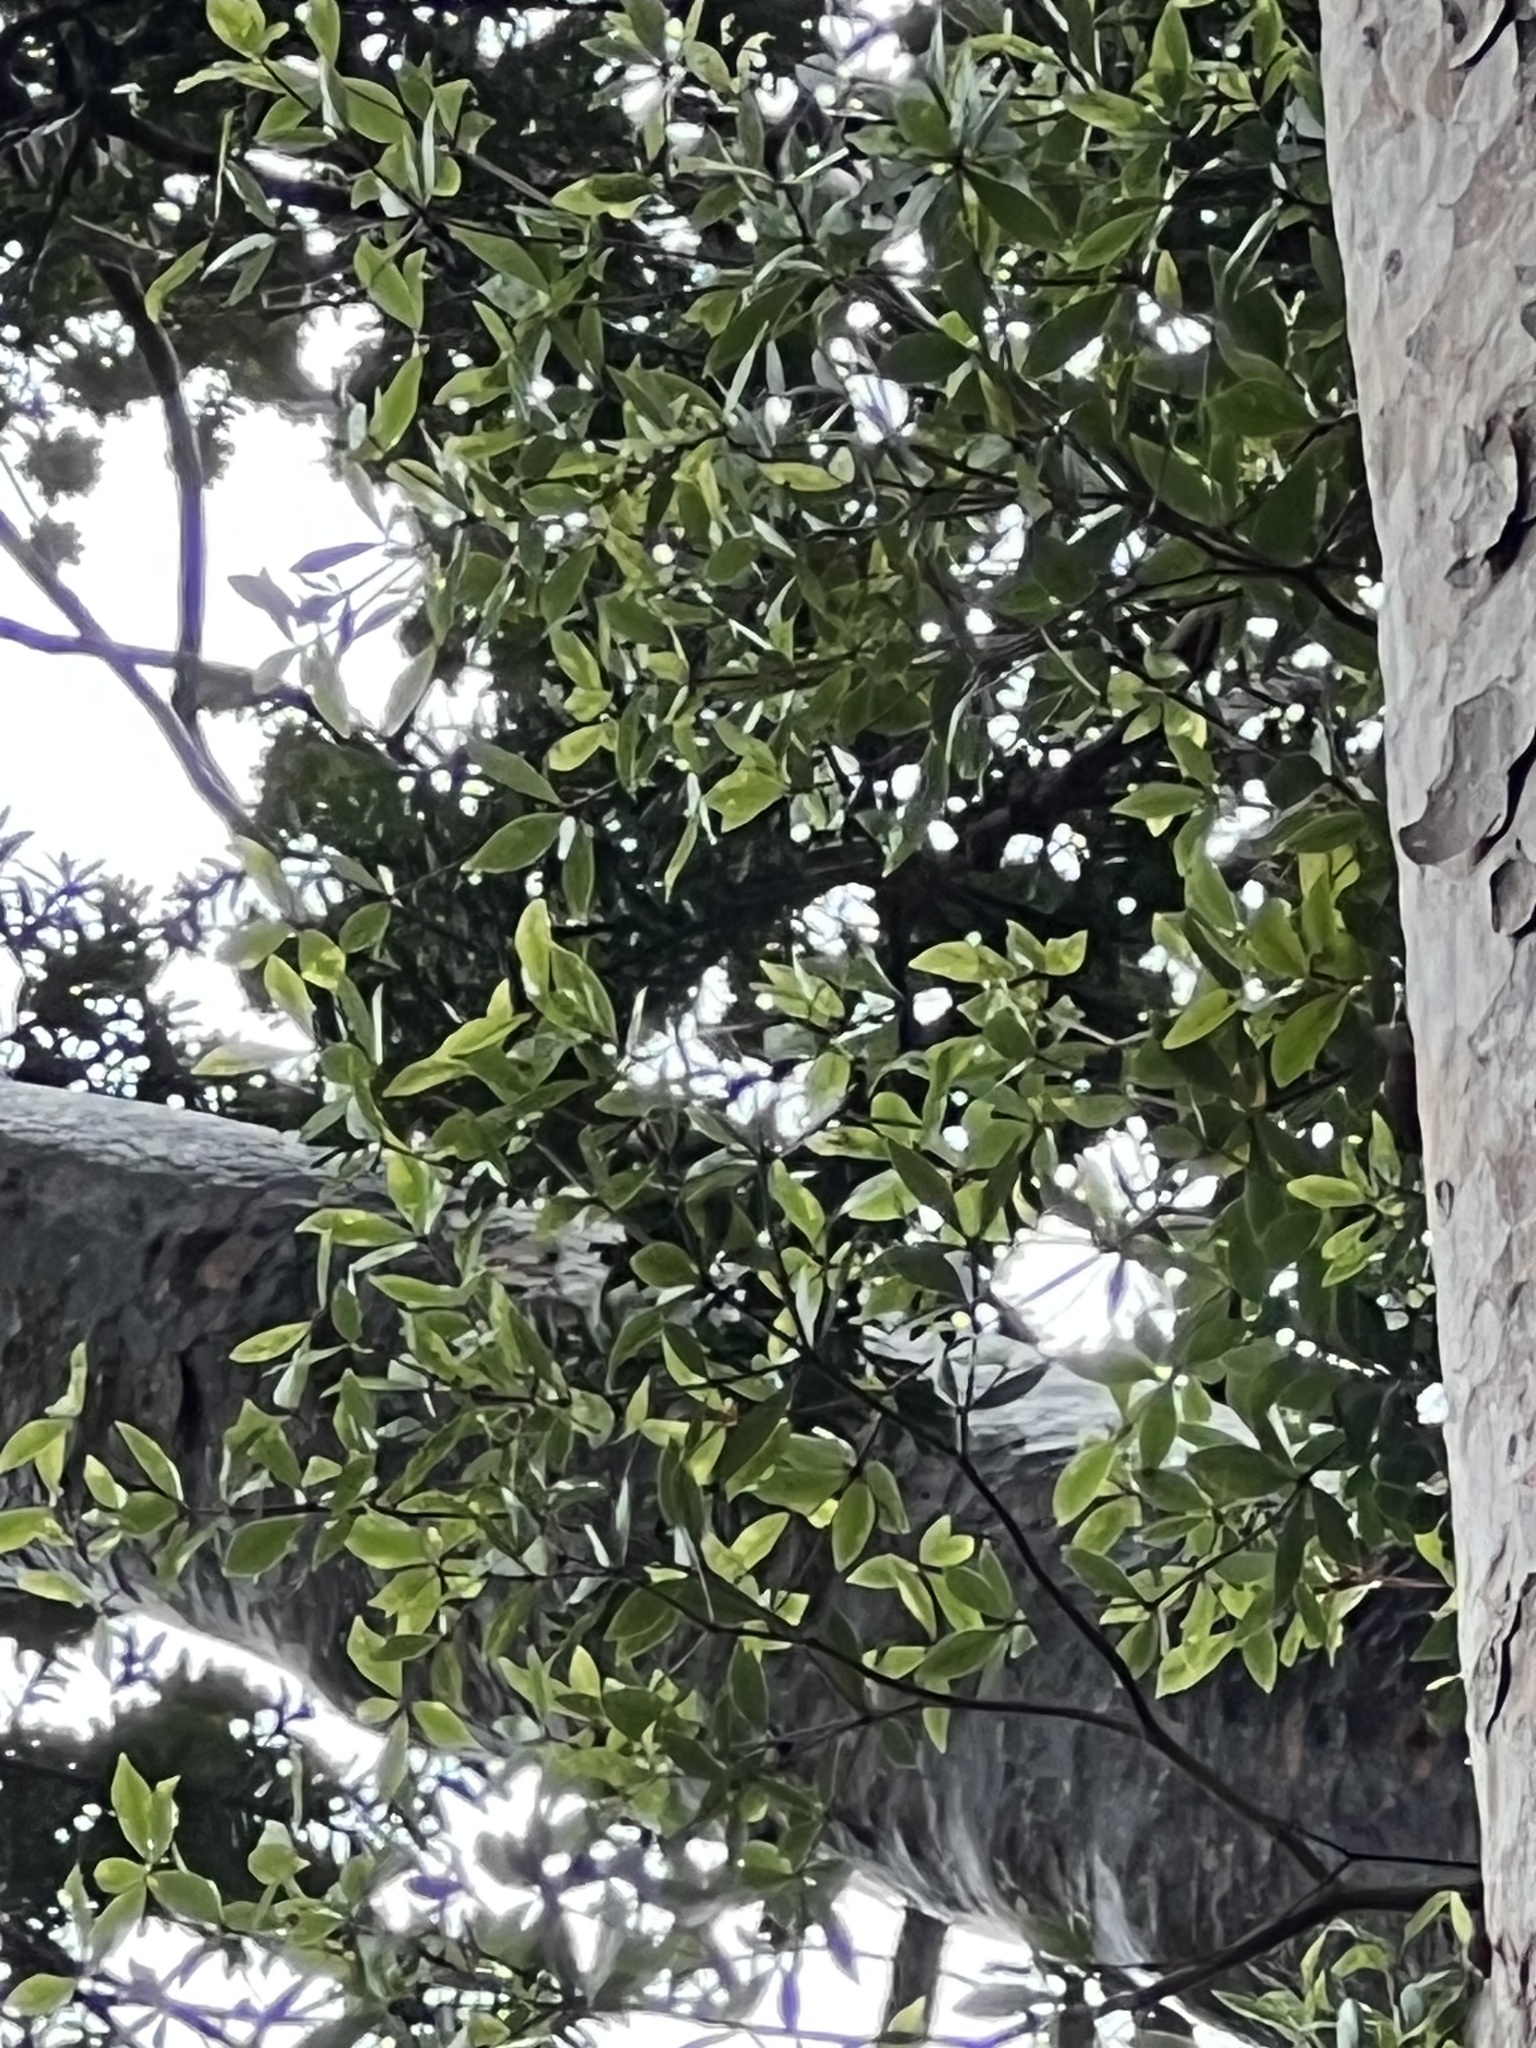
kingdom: Plantae
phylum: Tracheophyta
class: Magnoliopsida
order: Apiales
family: Pittosporaceae
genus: Pittosporum
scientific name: Pittosporum cornifolium
